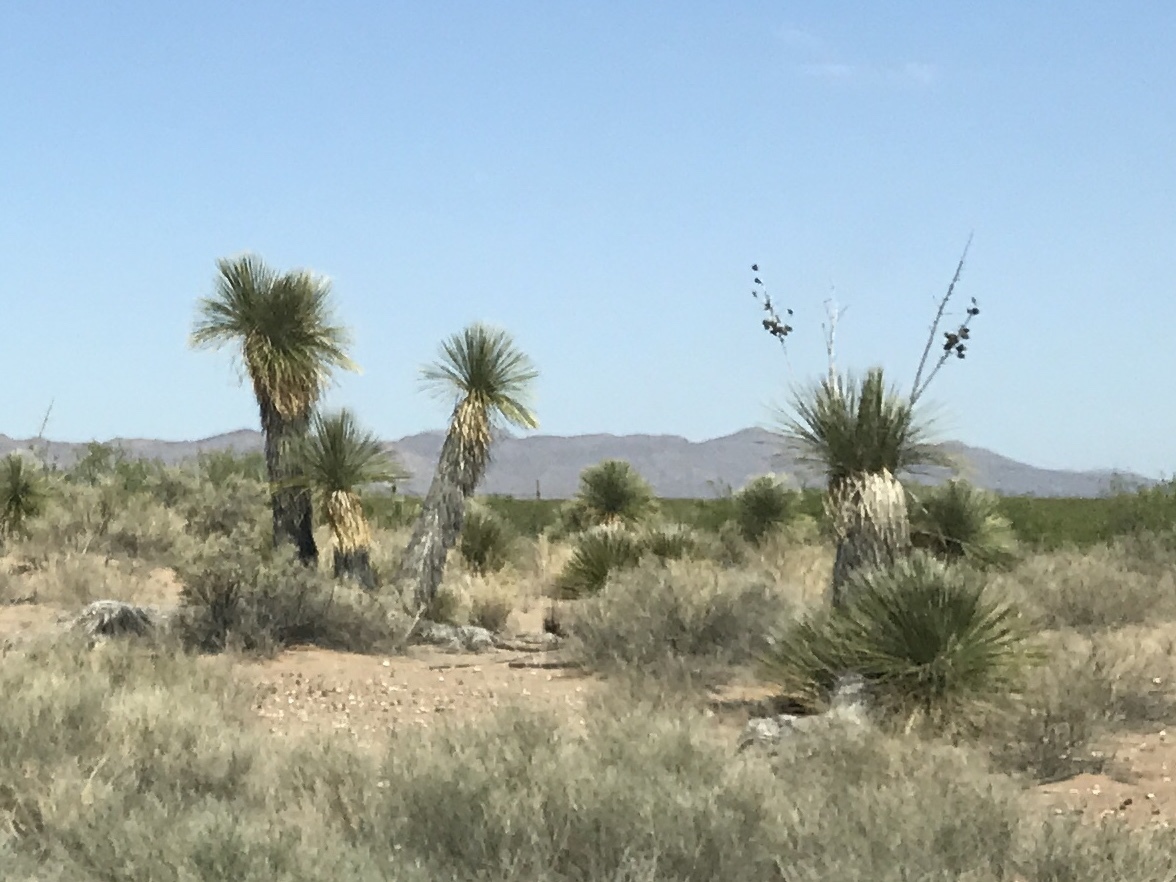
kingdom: Plantae
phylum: Tracheophyta
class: Liliopsida
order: Asparagales
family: Asparagaceae
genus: Yucca
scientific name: Yucca elata
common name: Palmella
